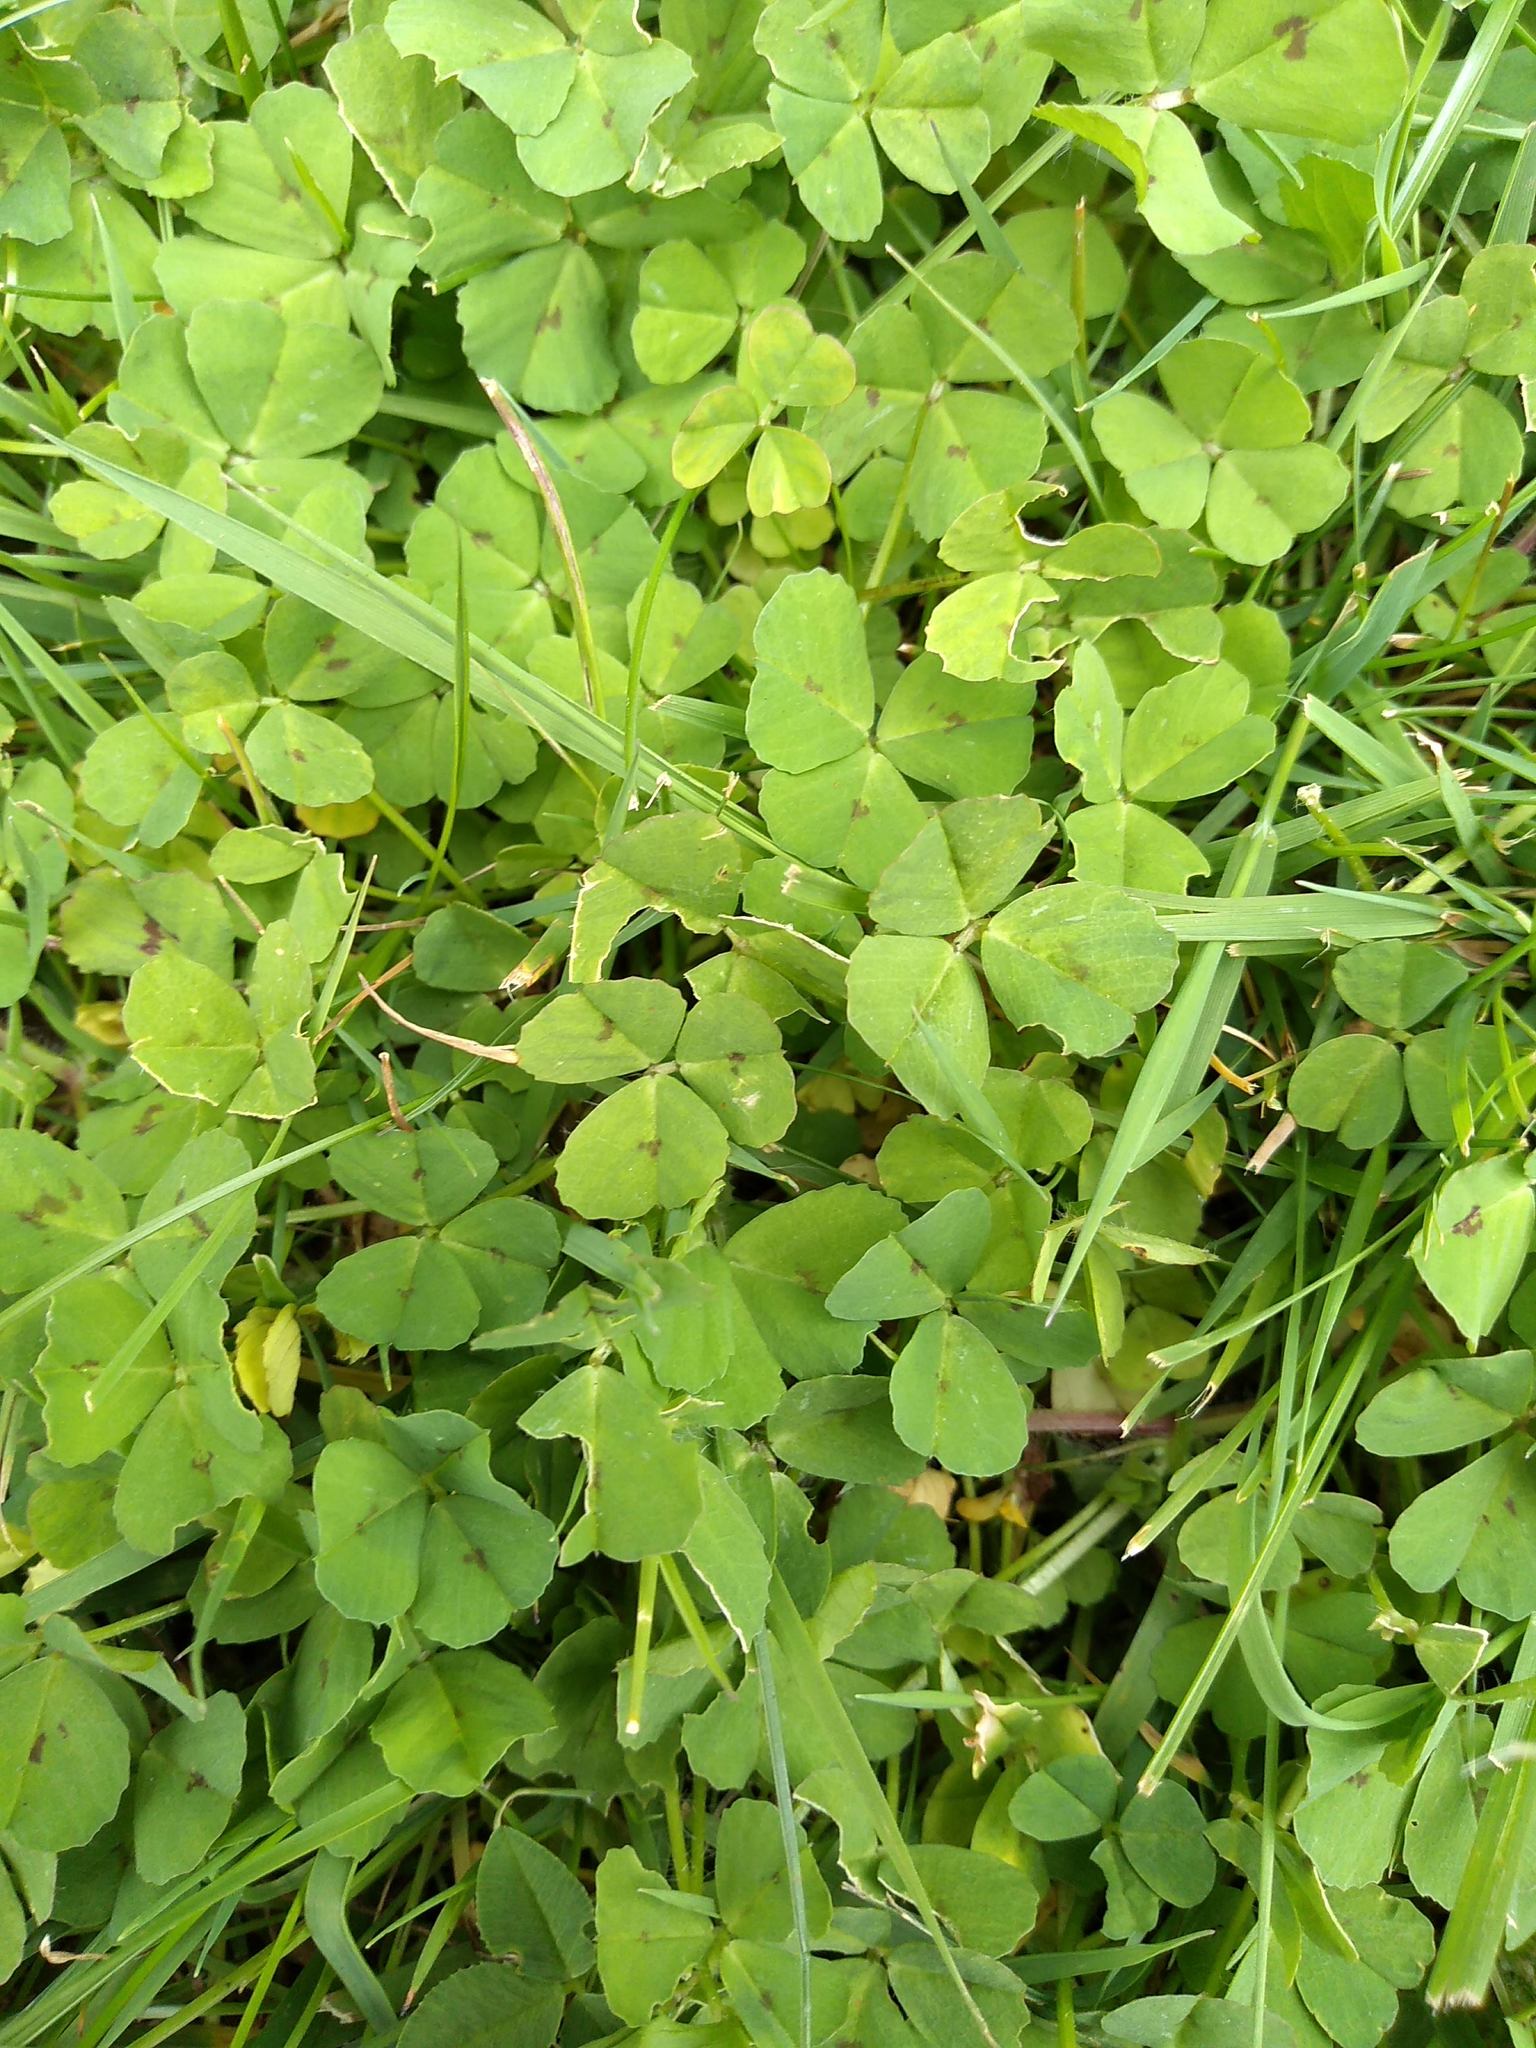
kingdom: Plantae
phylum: Tracheophyta
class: Magnoliopsida
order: Fabales
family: Fabaceae
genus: Medicago
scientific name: Medicago arabica
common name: Spotted medick
